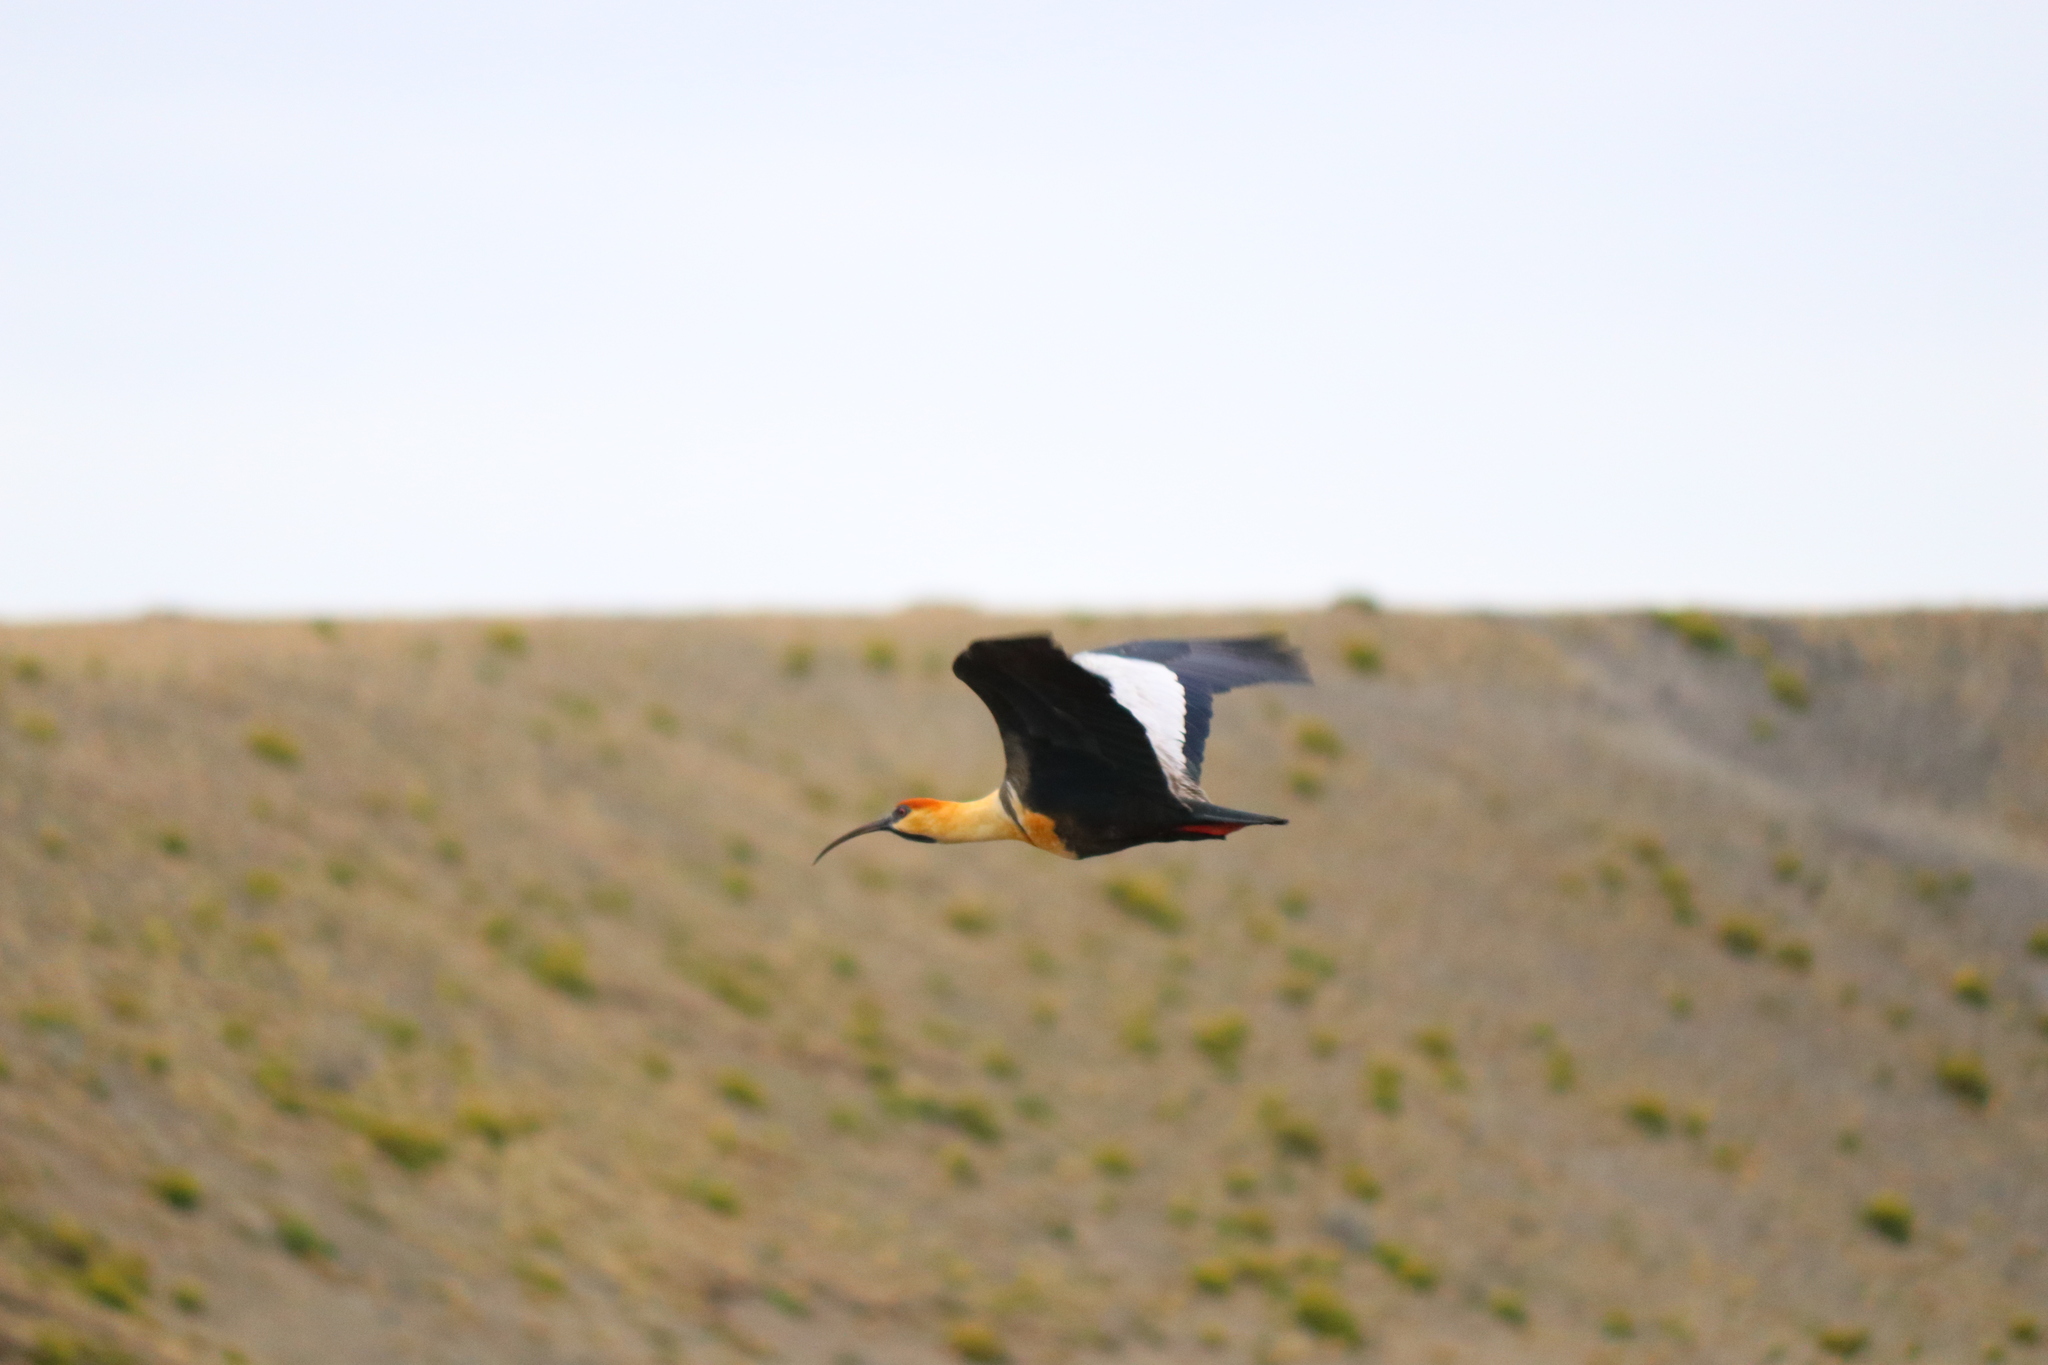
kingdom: Animalia
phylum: Chordata
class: Aves
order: Pelecaniformes
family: Threskiornithidae
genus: Theristicus
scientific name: Theristicus melanopis
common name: Black-faced ibis
